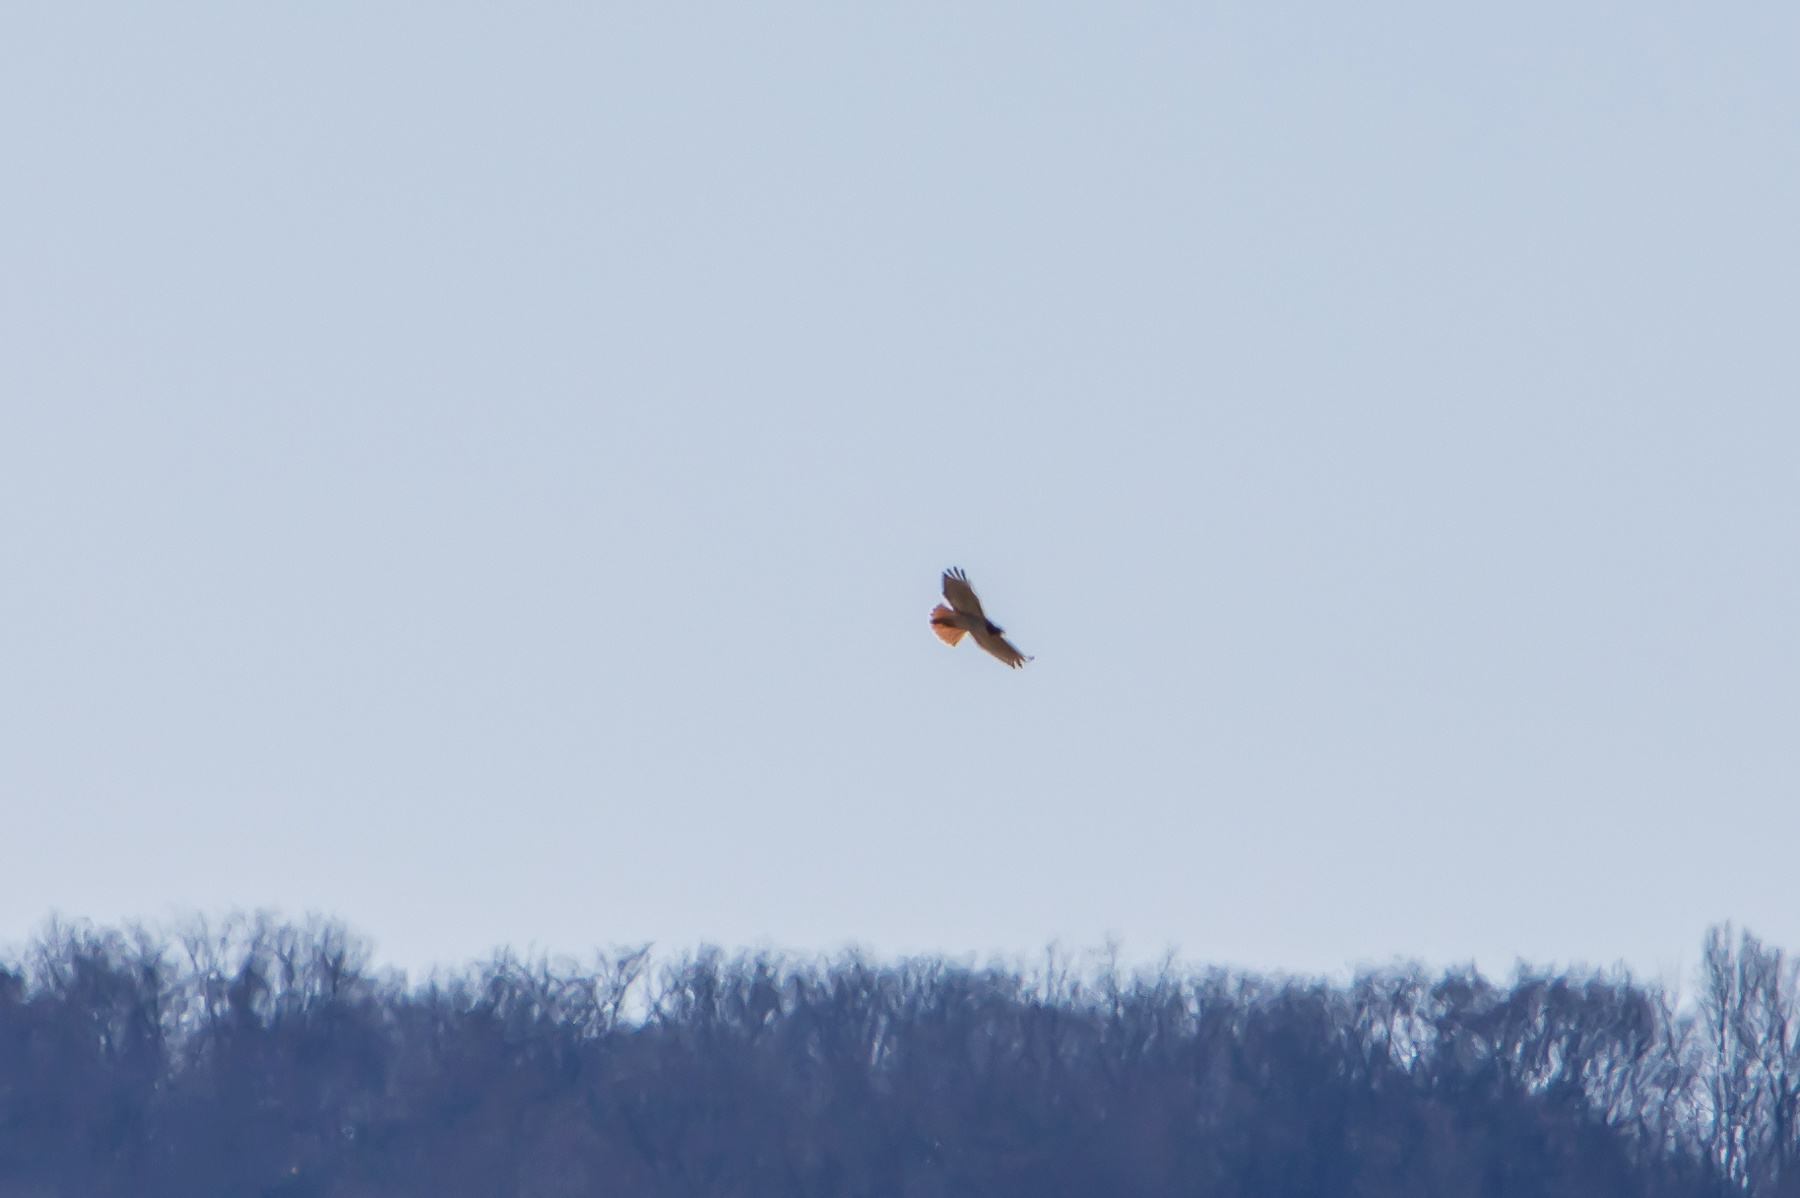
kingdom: Animalia
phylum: Chordata
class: Aves
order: Accipitriformes
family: Accipitridae
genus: Buteo
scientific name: Buteo jamaicensis
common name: Red-tailed hawk
